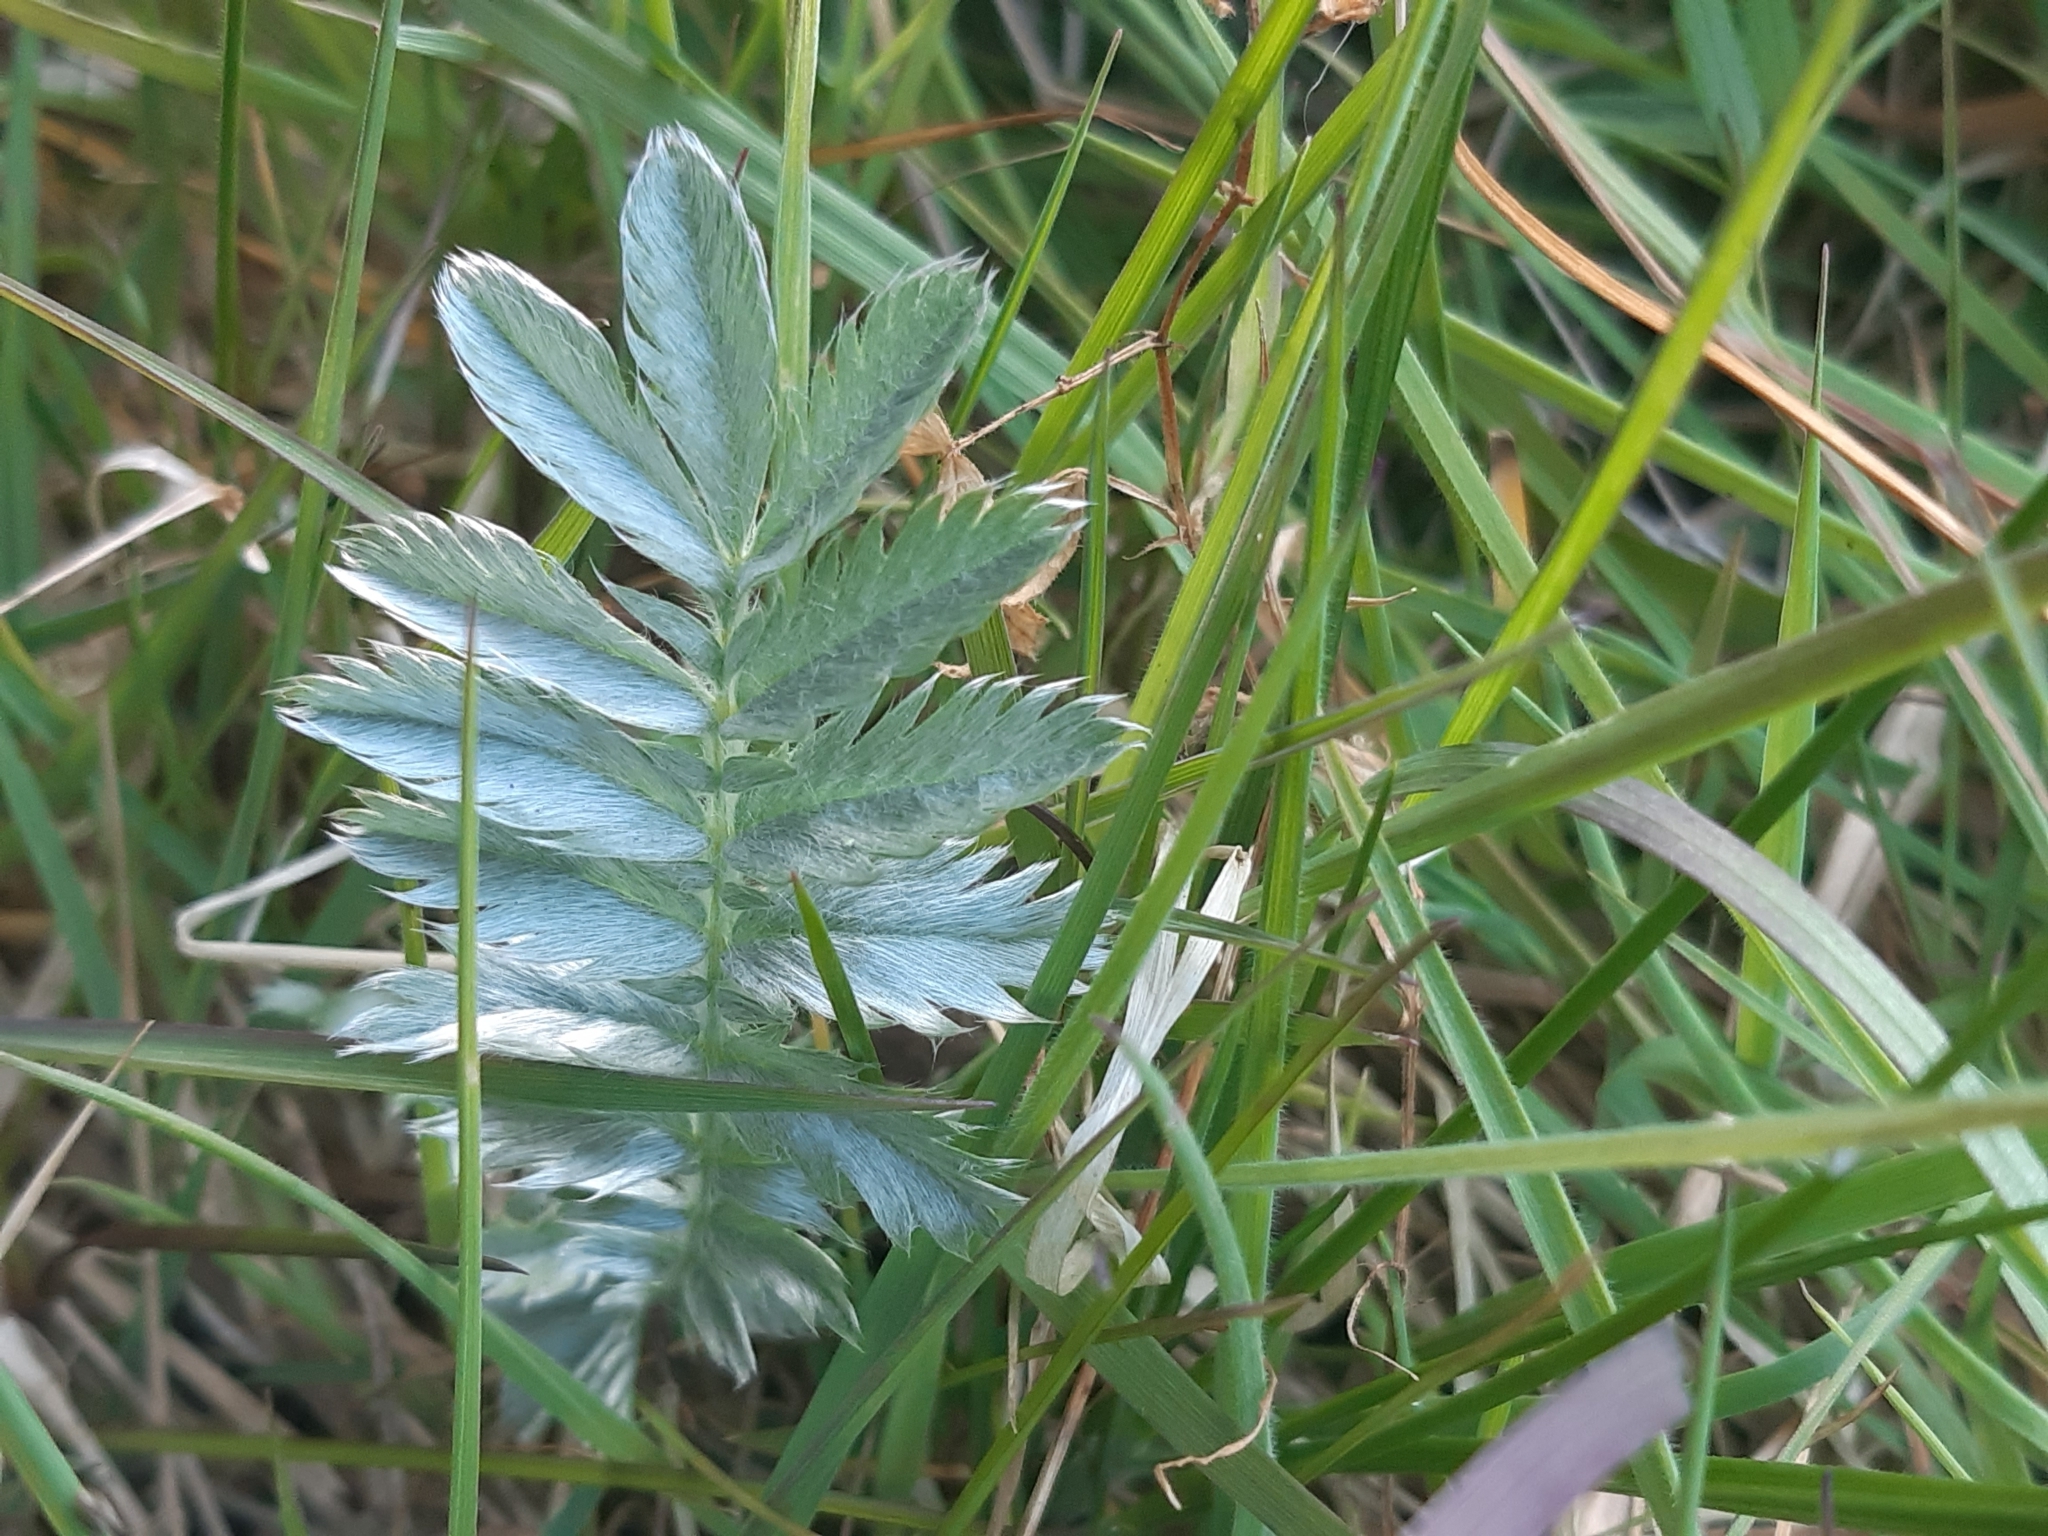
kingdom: Plantae
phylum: Tracheophyta
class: Magnoliopsida
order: Rosales
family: Rosaceae
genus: Argentina
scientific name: Argentina anserina
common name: Common silverweed
